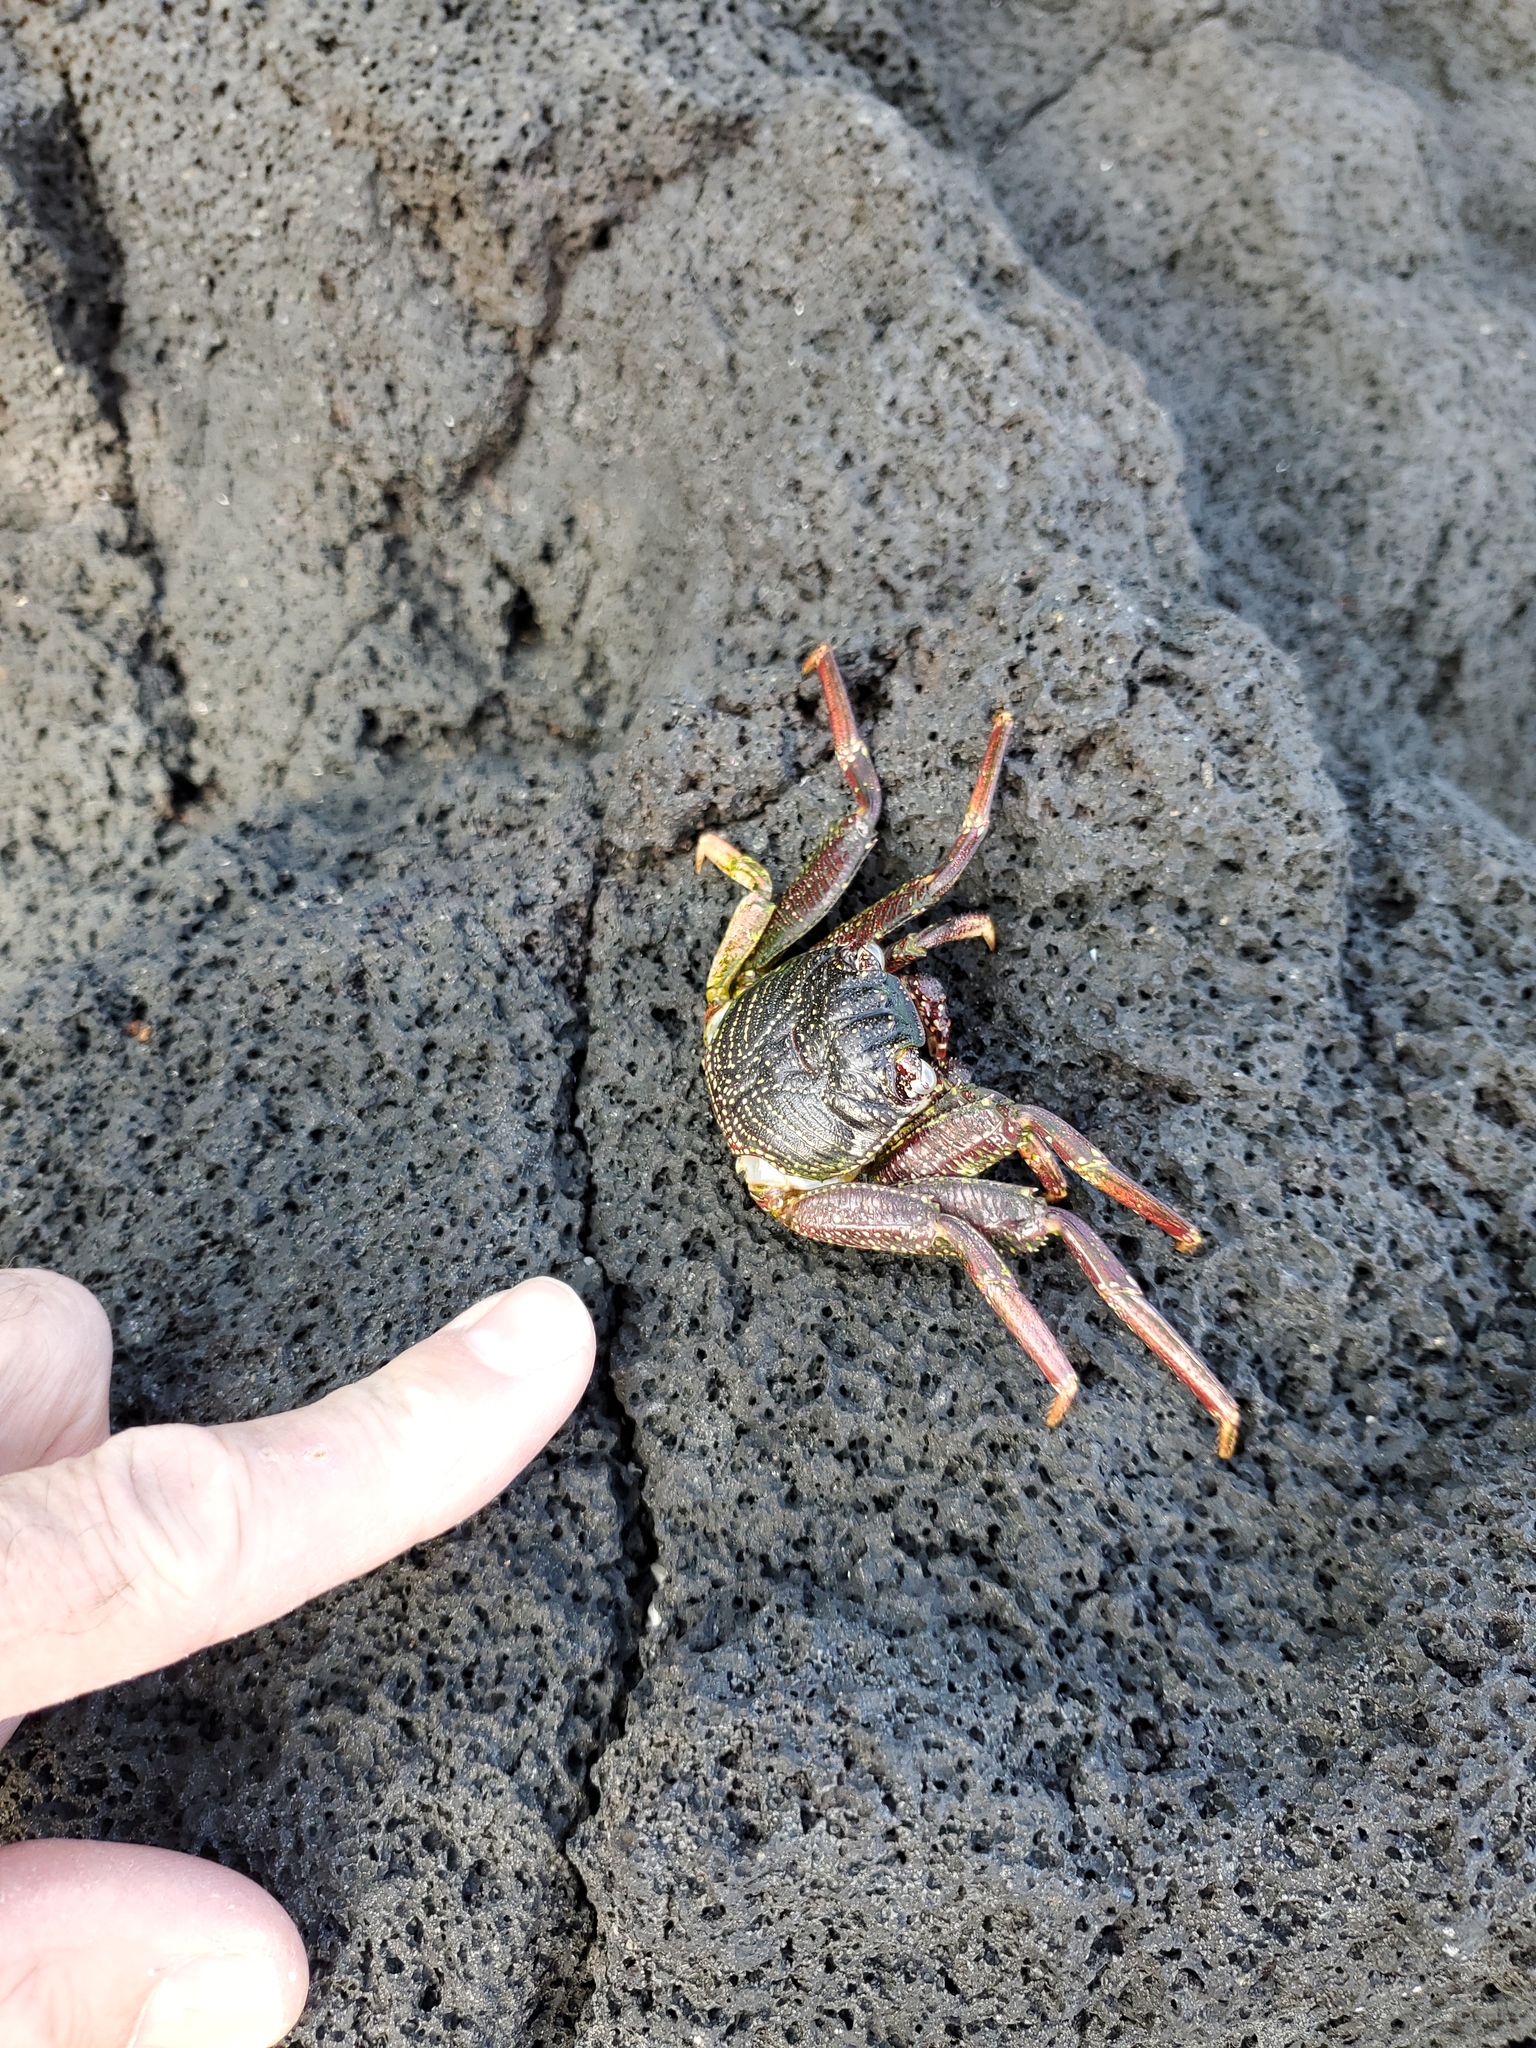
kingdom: Animalia
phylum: Arthropoda
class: Malacostraca
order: Decapoda
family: Grapsidae
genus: Grapsus
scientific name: Grapsus tenuicrustatus
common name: Natal lightfoot crab
